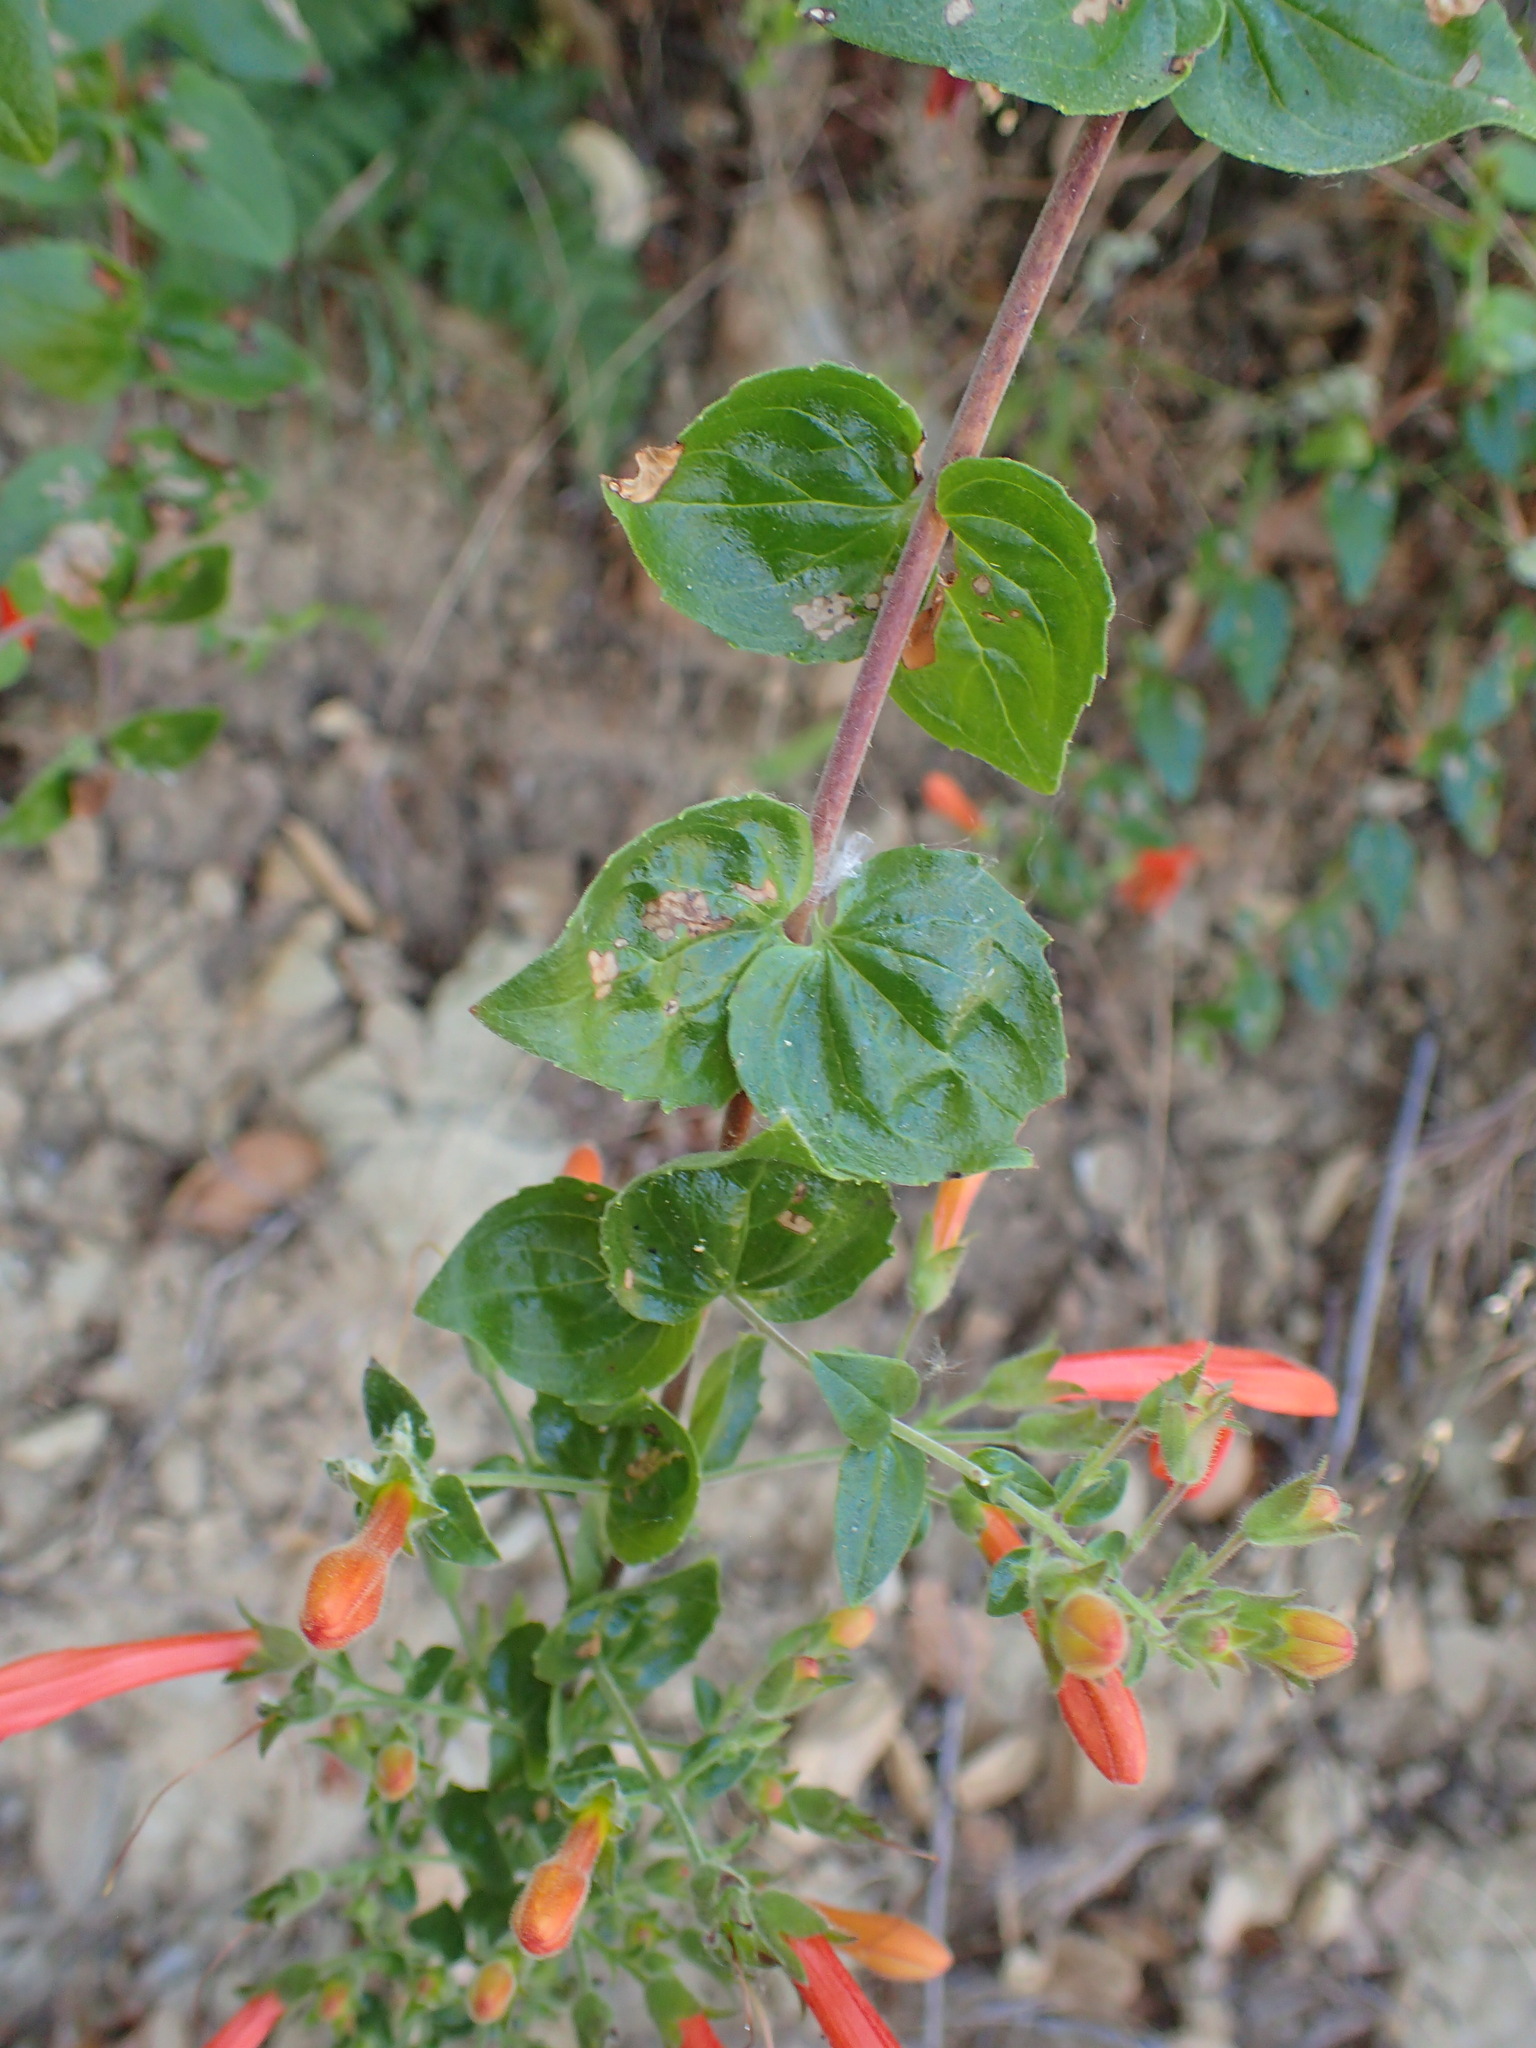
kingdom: Plantae
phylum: Tracheophyta
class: Magnoliopsida
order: Lamiales
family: Plantaginaceae
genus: Keckiella
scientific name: Keckiella cordifolia
